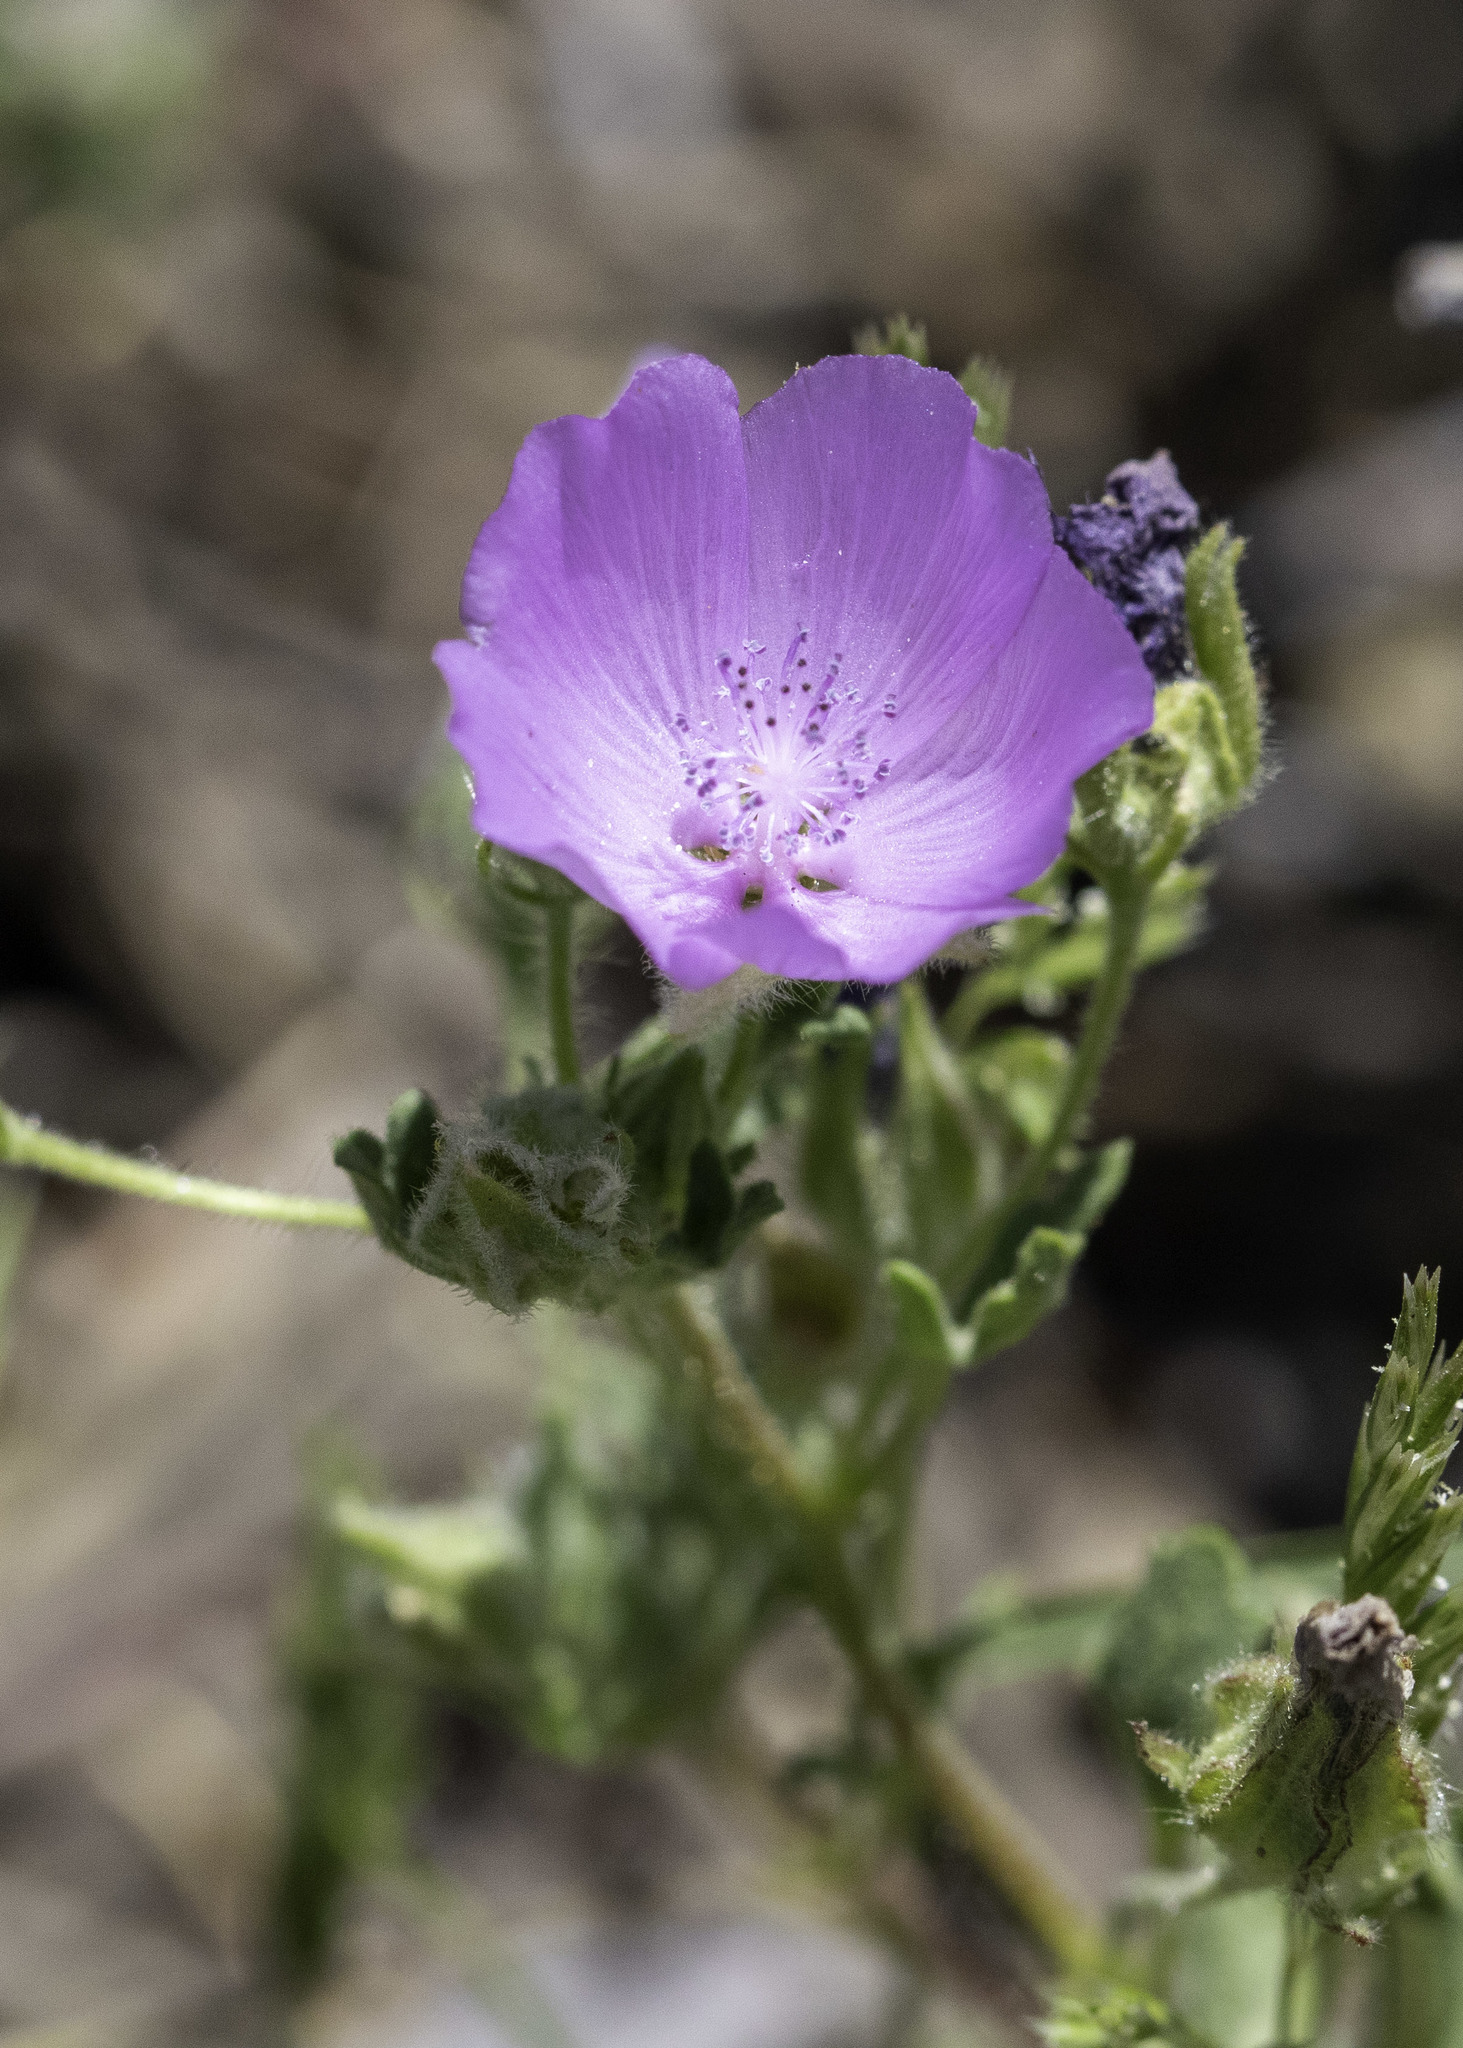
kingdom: Plantae
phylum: Tracheophyta
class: Magnoliopsida
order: Malvales
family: Malvaceae
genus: Eremalche
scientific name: Eremalche parryi
